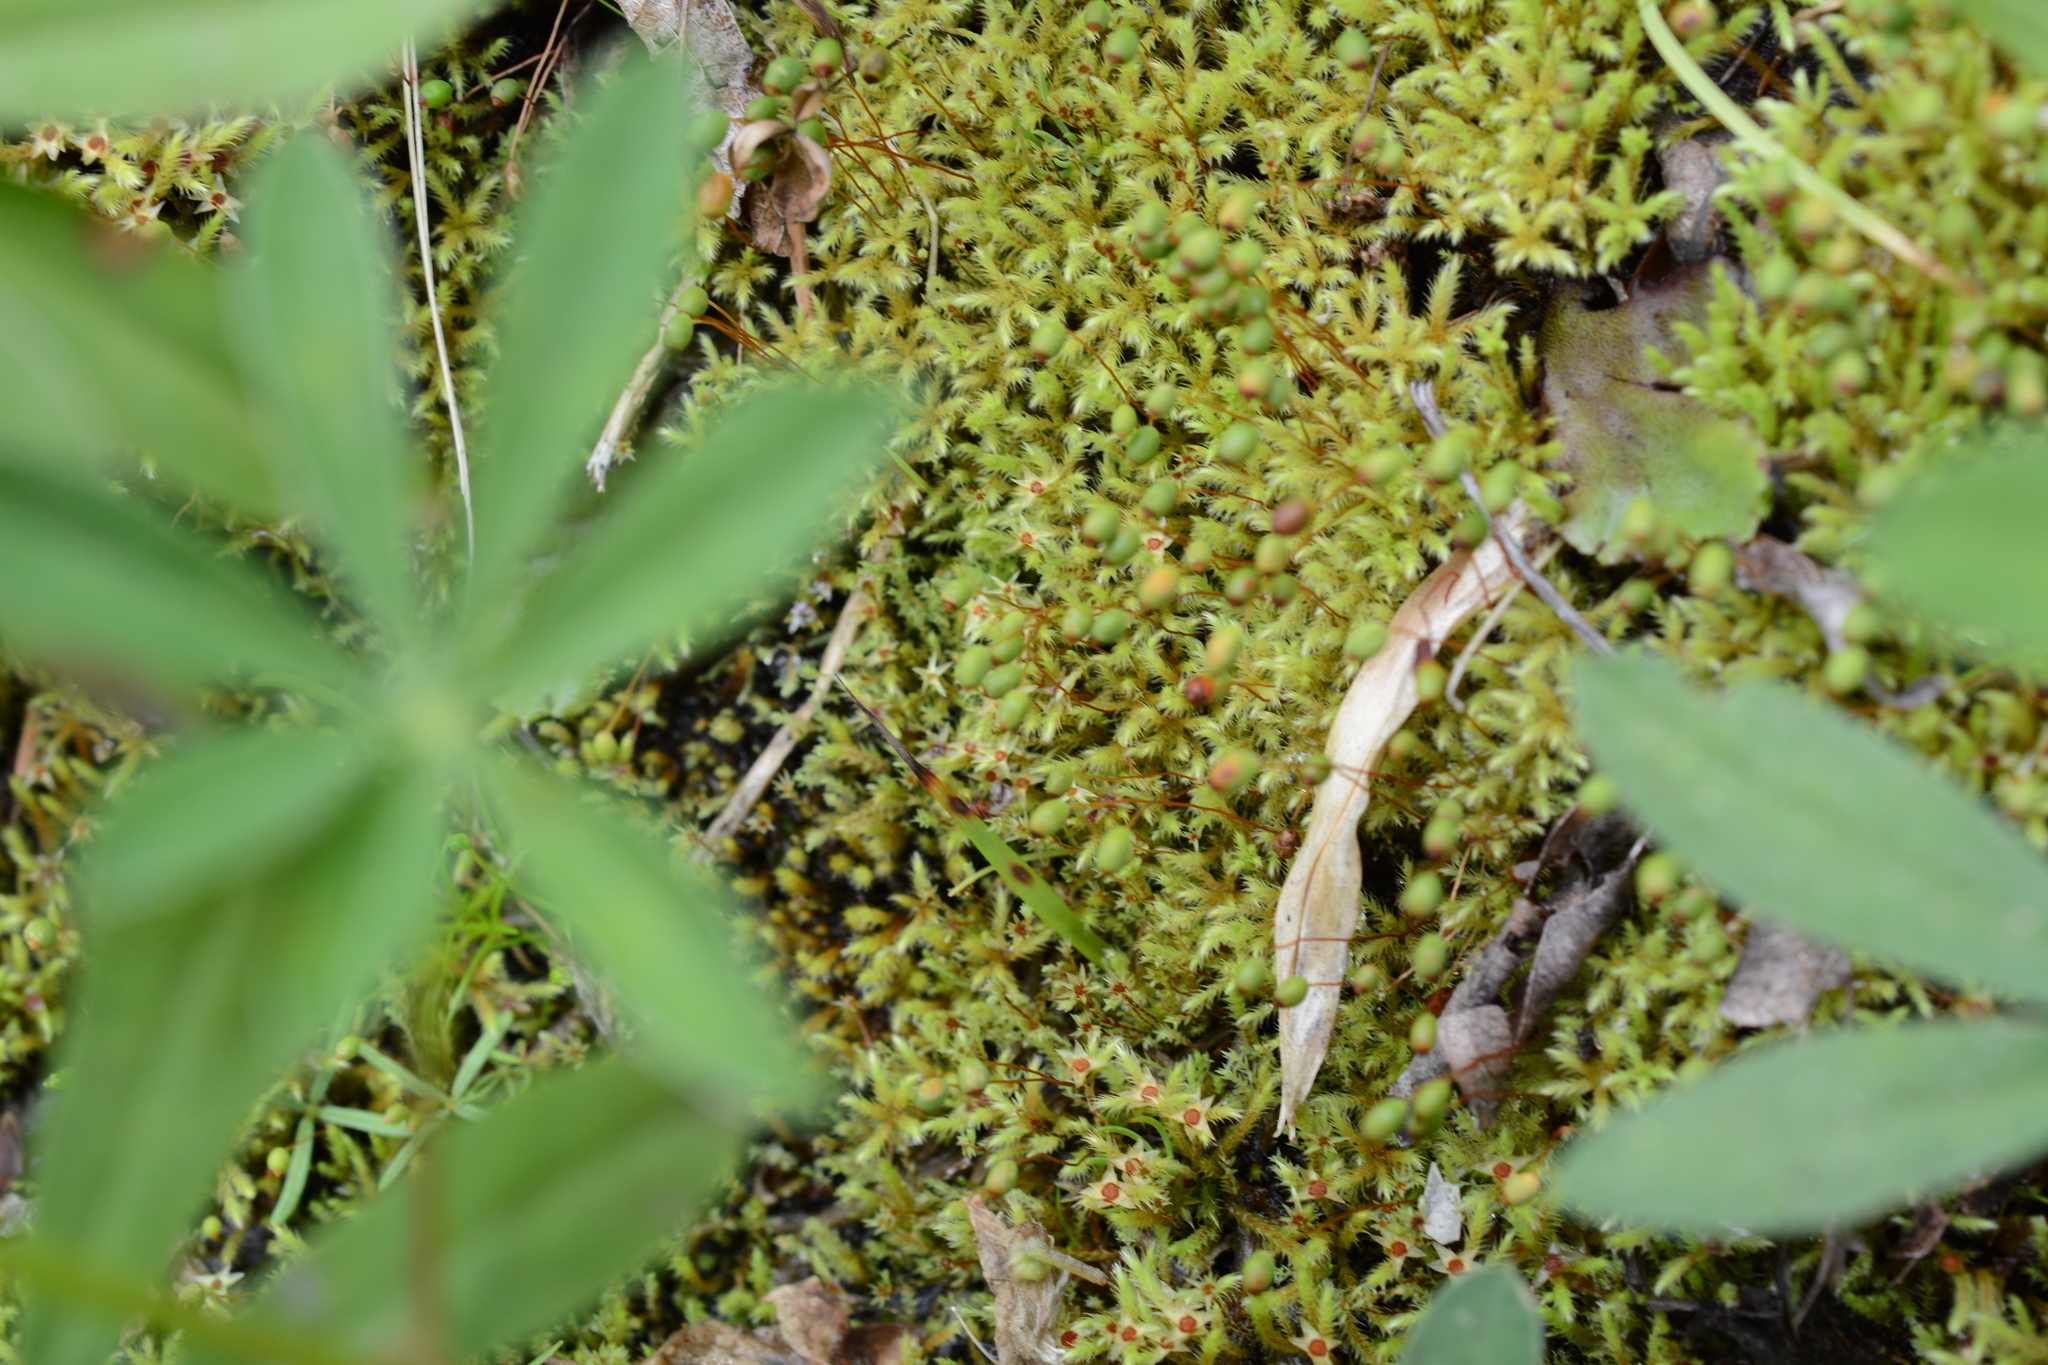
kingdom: Plantae
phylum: Bryophyta
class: Bryopsida
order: Bartramiales
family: Bartramiaceae
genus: Philonotis
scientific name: Philonotis fontana
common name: Fountain apple-moss
